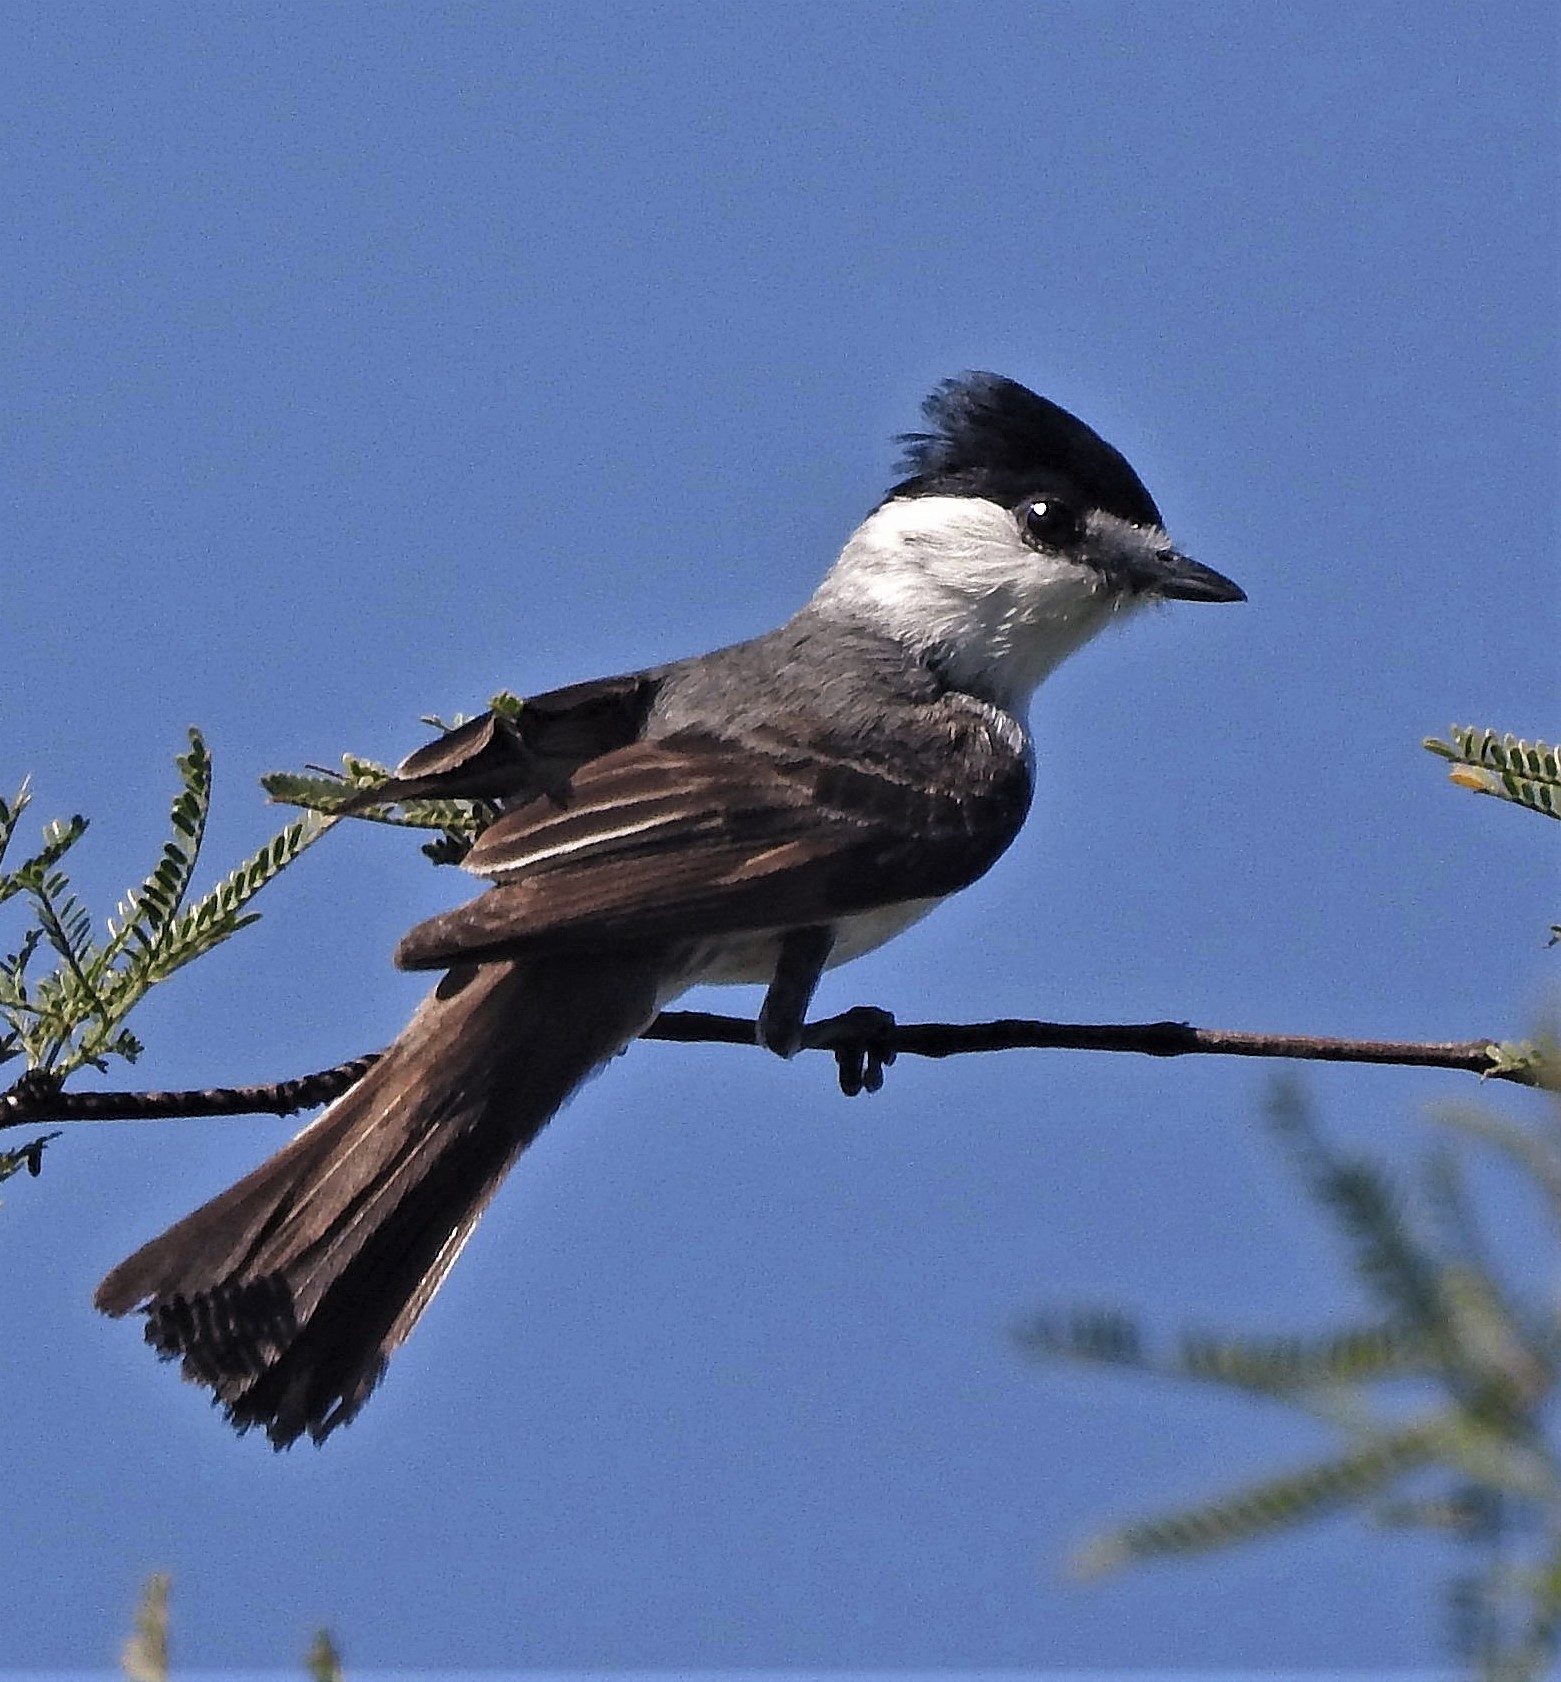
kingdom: Animalia
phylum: Chordata
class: Aves
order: Passeriformes
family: Cotingidae
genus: Xenopsaris
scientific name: Xenopsaris albinucha
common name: White-naped xenopsaris
